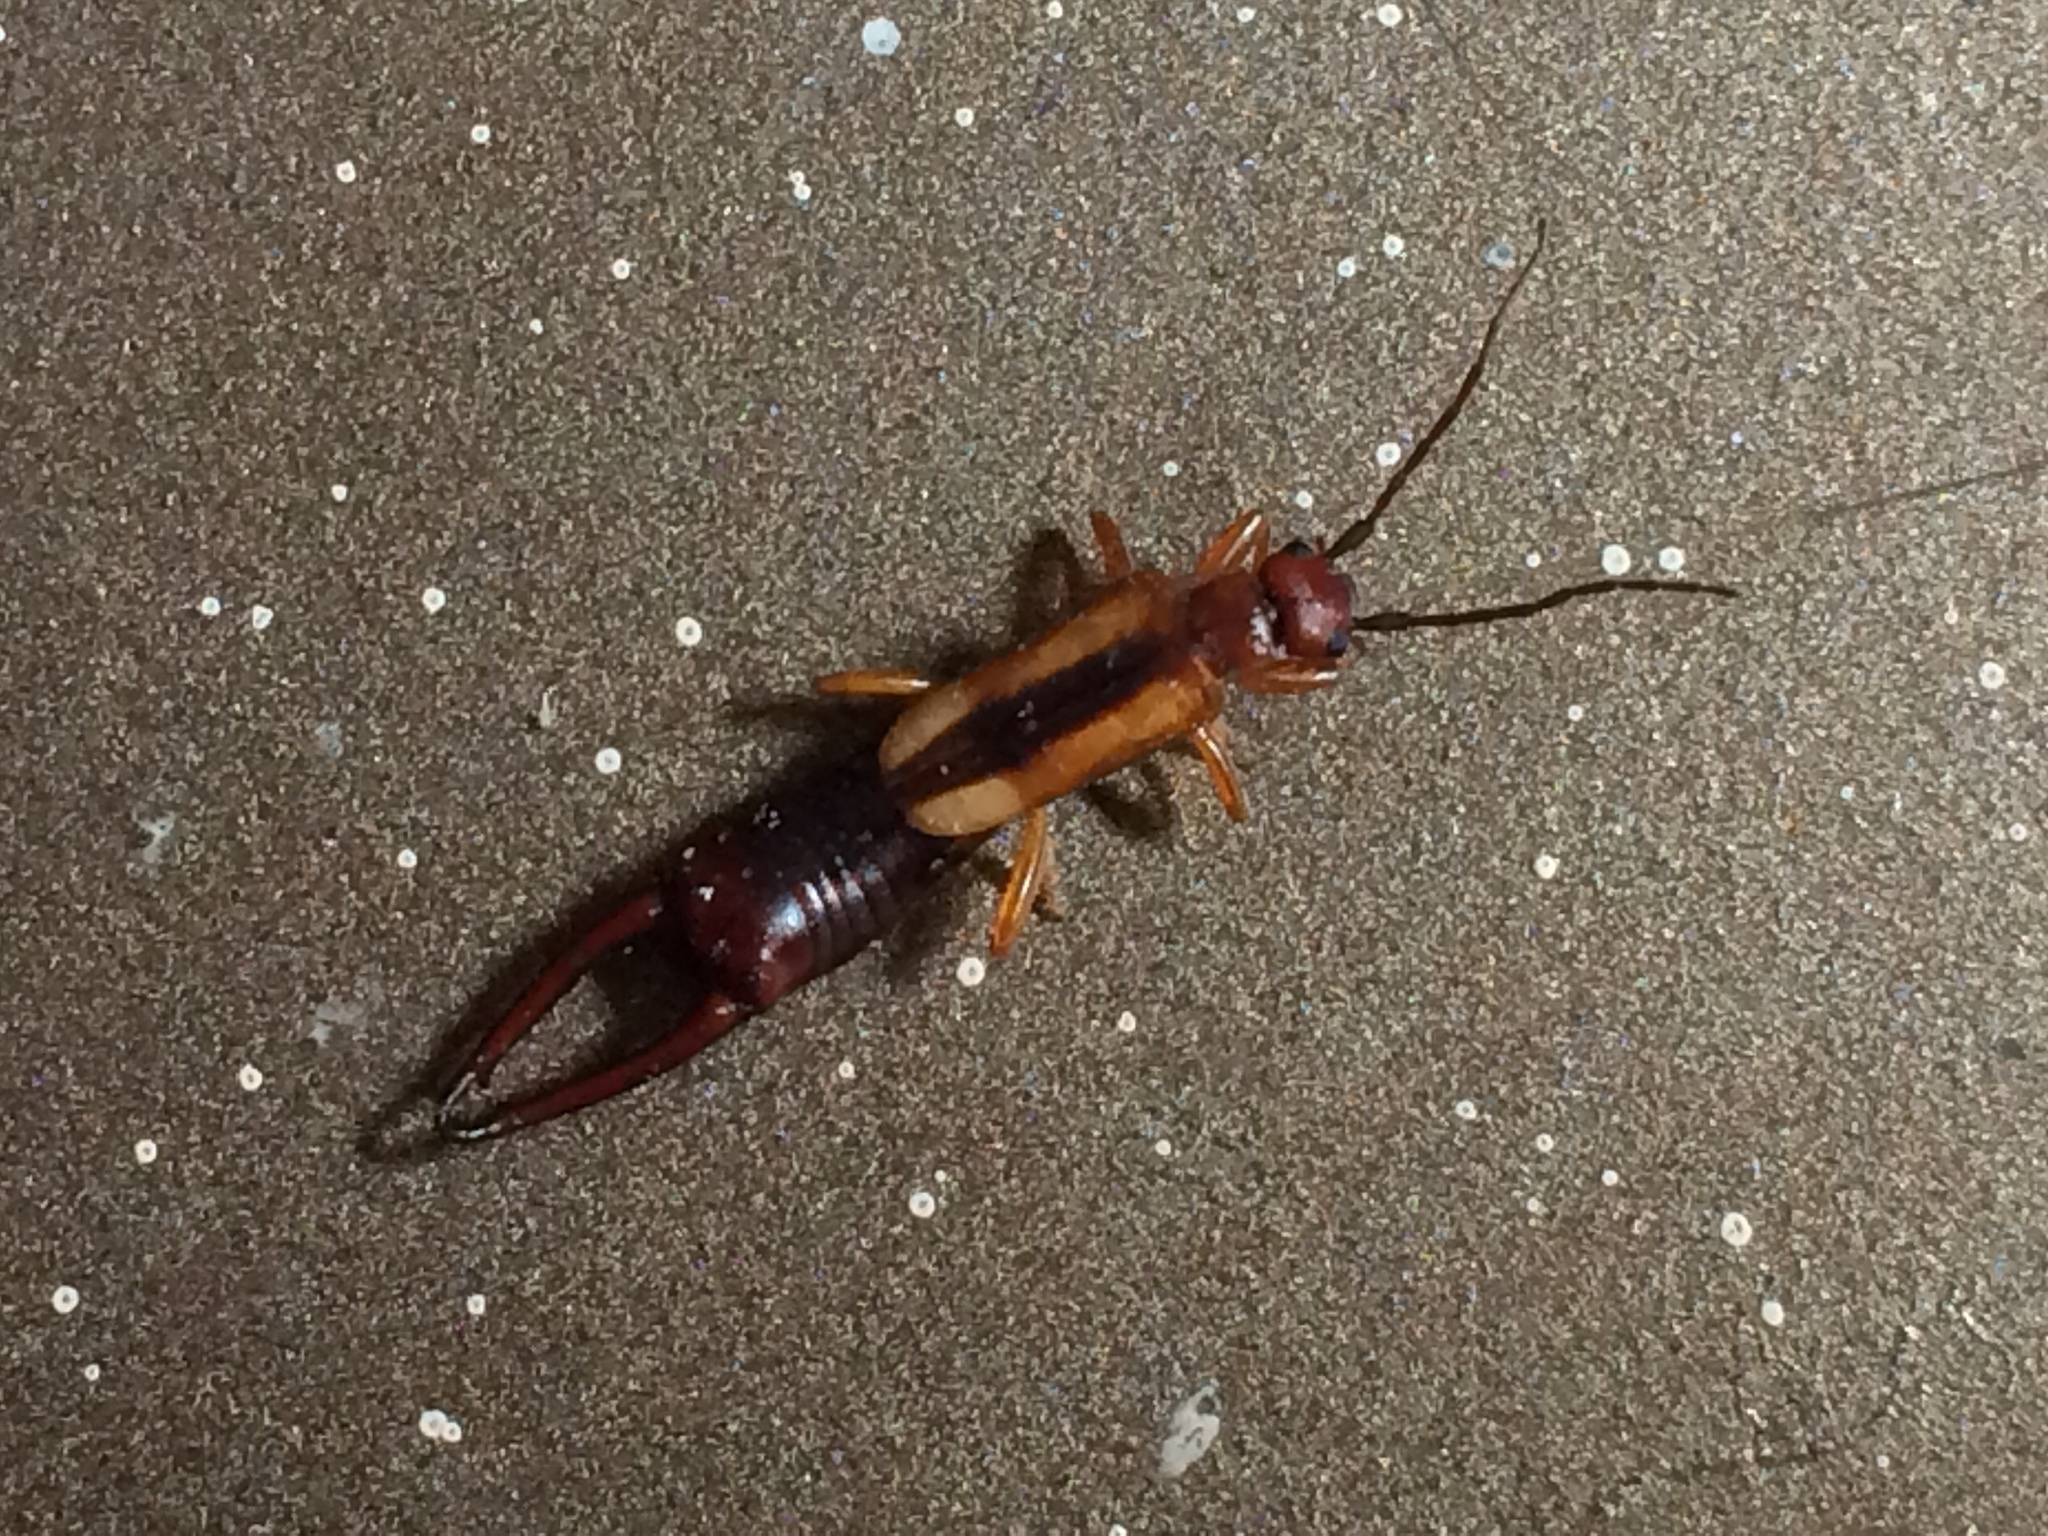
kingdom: Animalia
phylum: Arthropoda
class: Insecta
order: Dermaptera
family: Forficulidae
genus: Doru
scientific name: Doru lineare
